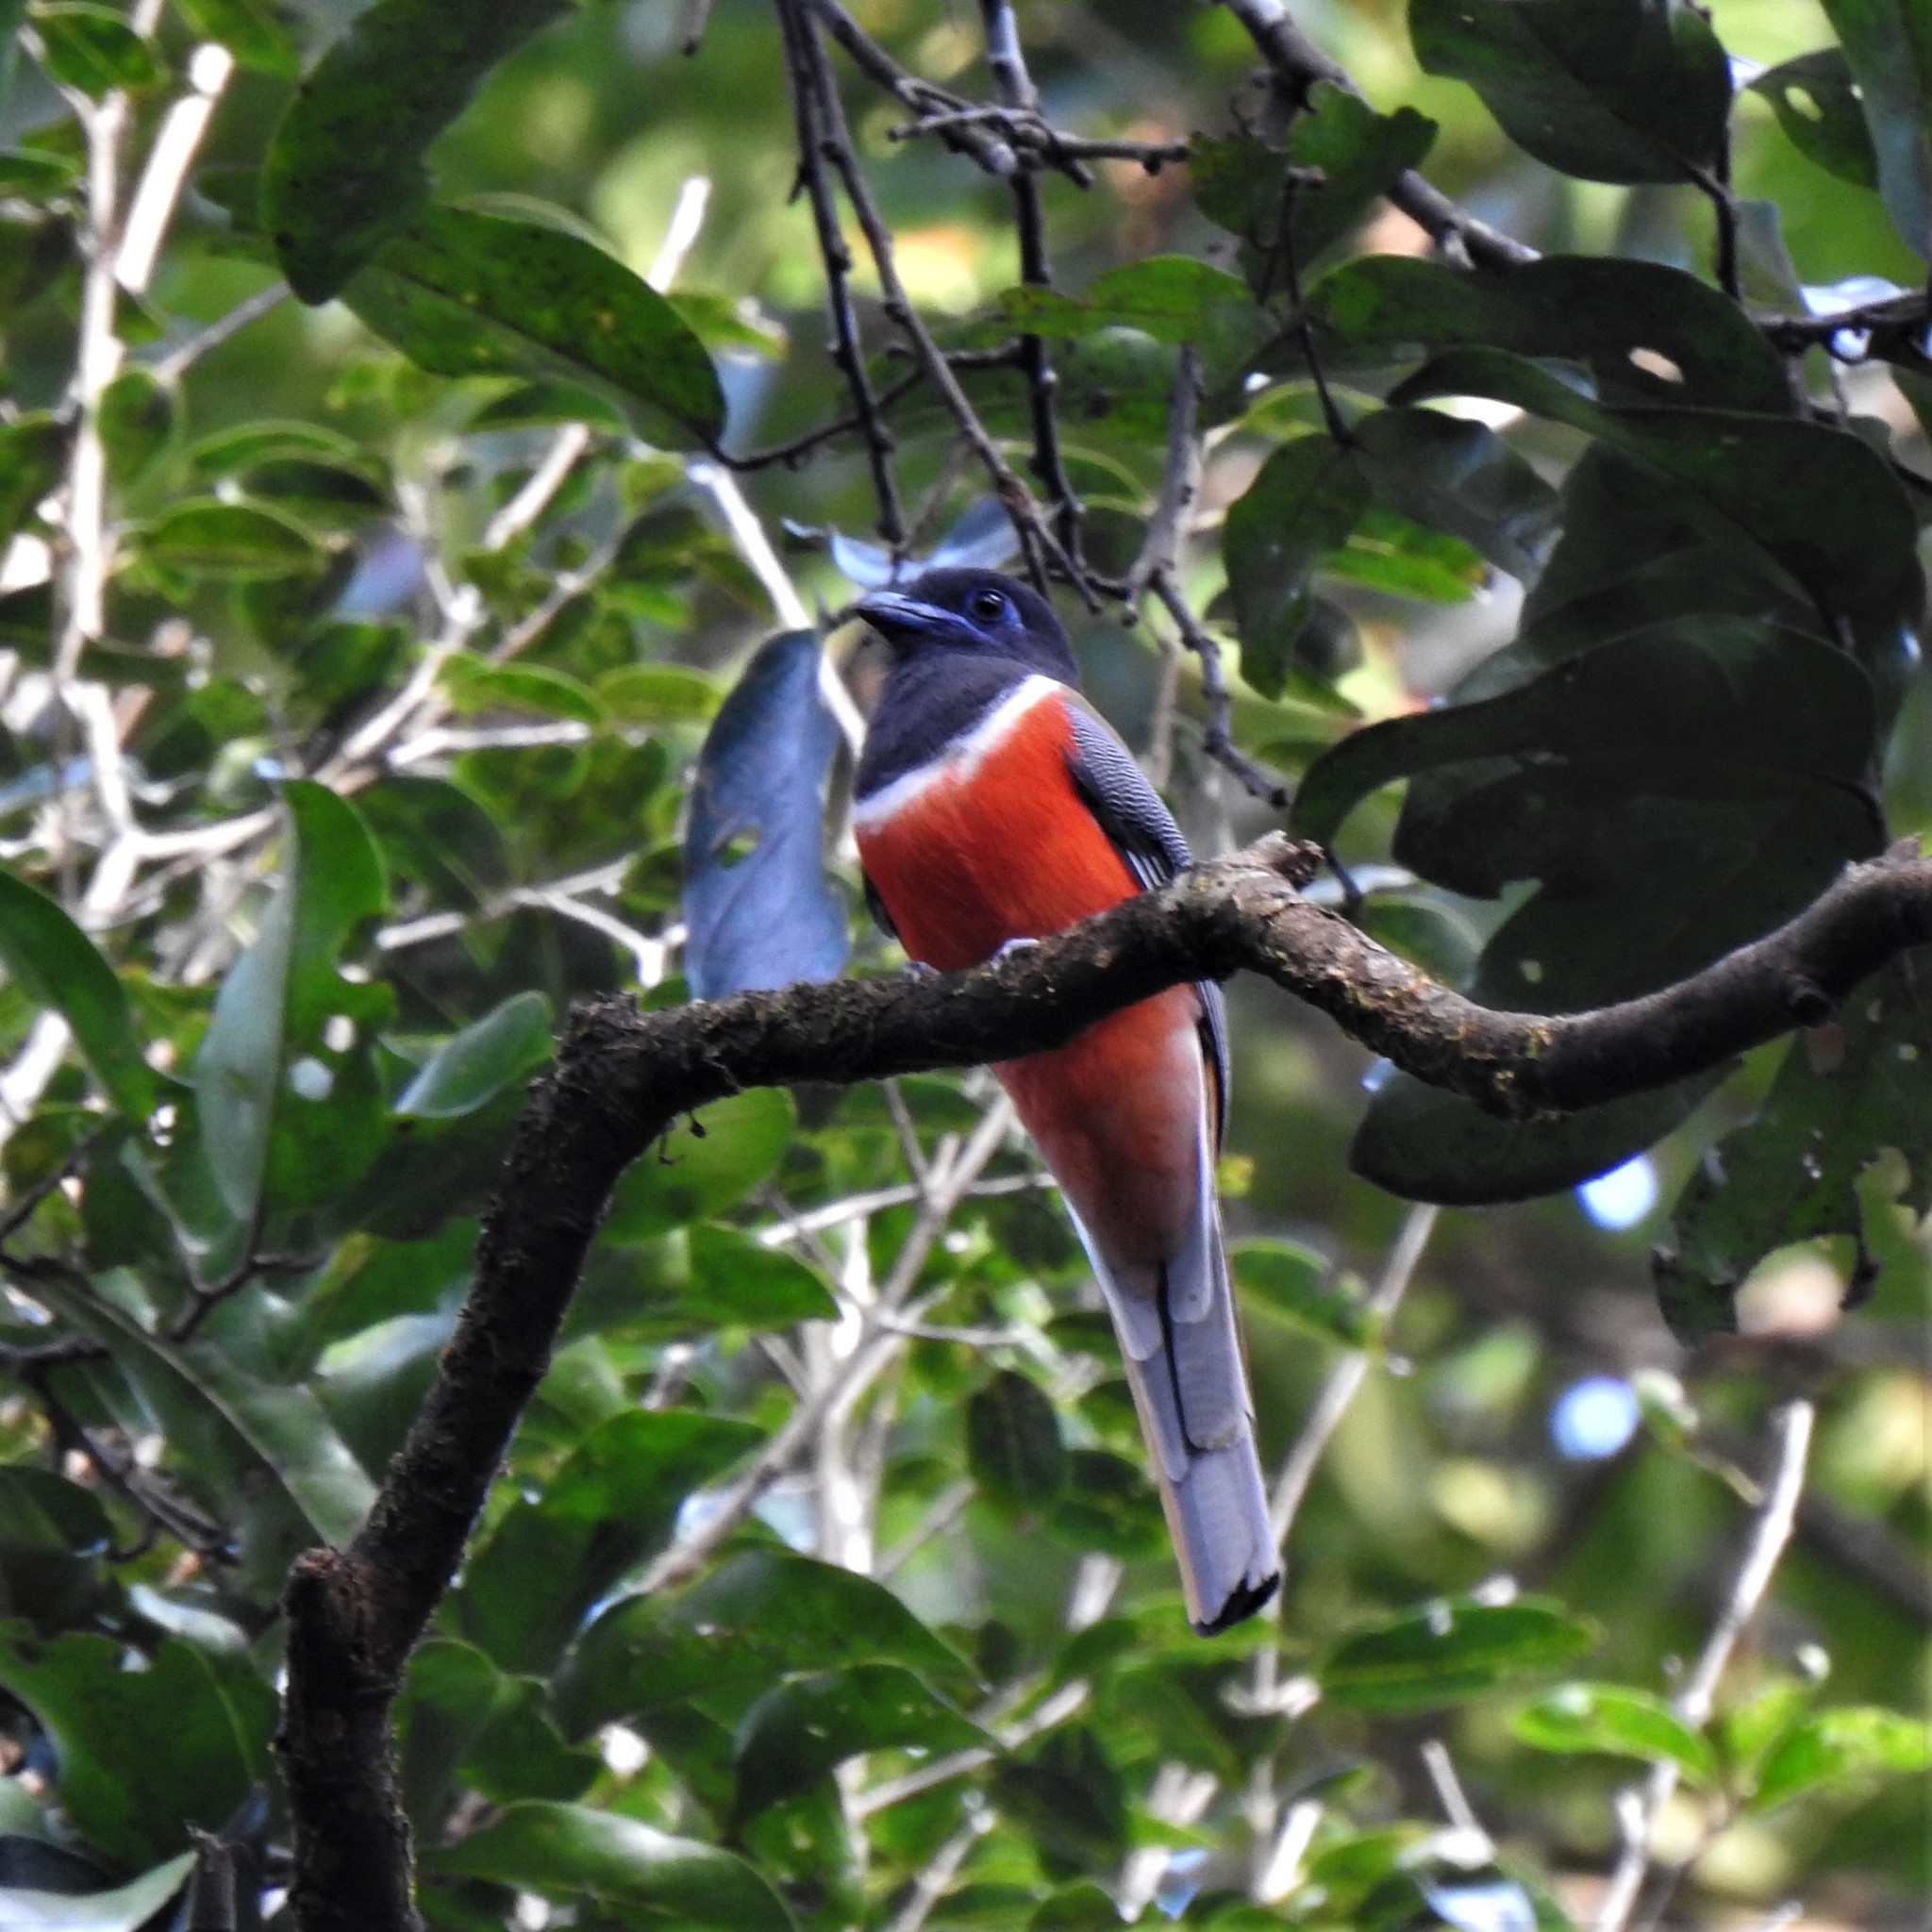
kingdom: Animalia
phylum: Chordata
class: Aves
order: Trogoniformes
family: Trogonidae
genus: Harpactes
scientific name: Harpactes fasciatus
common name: Malabar trogon
